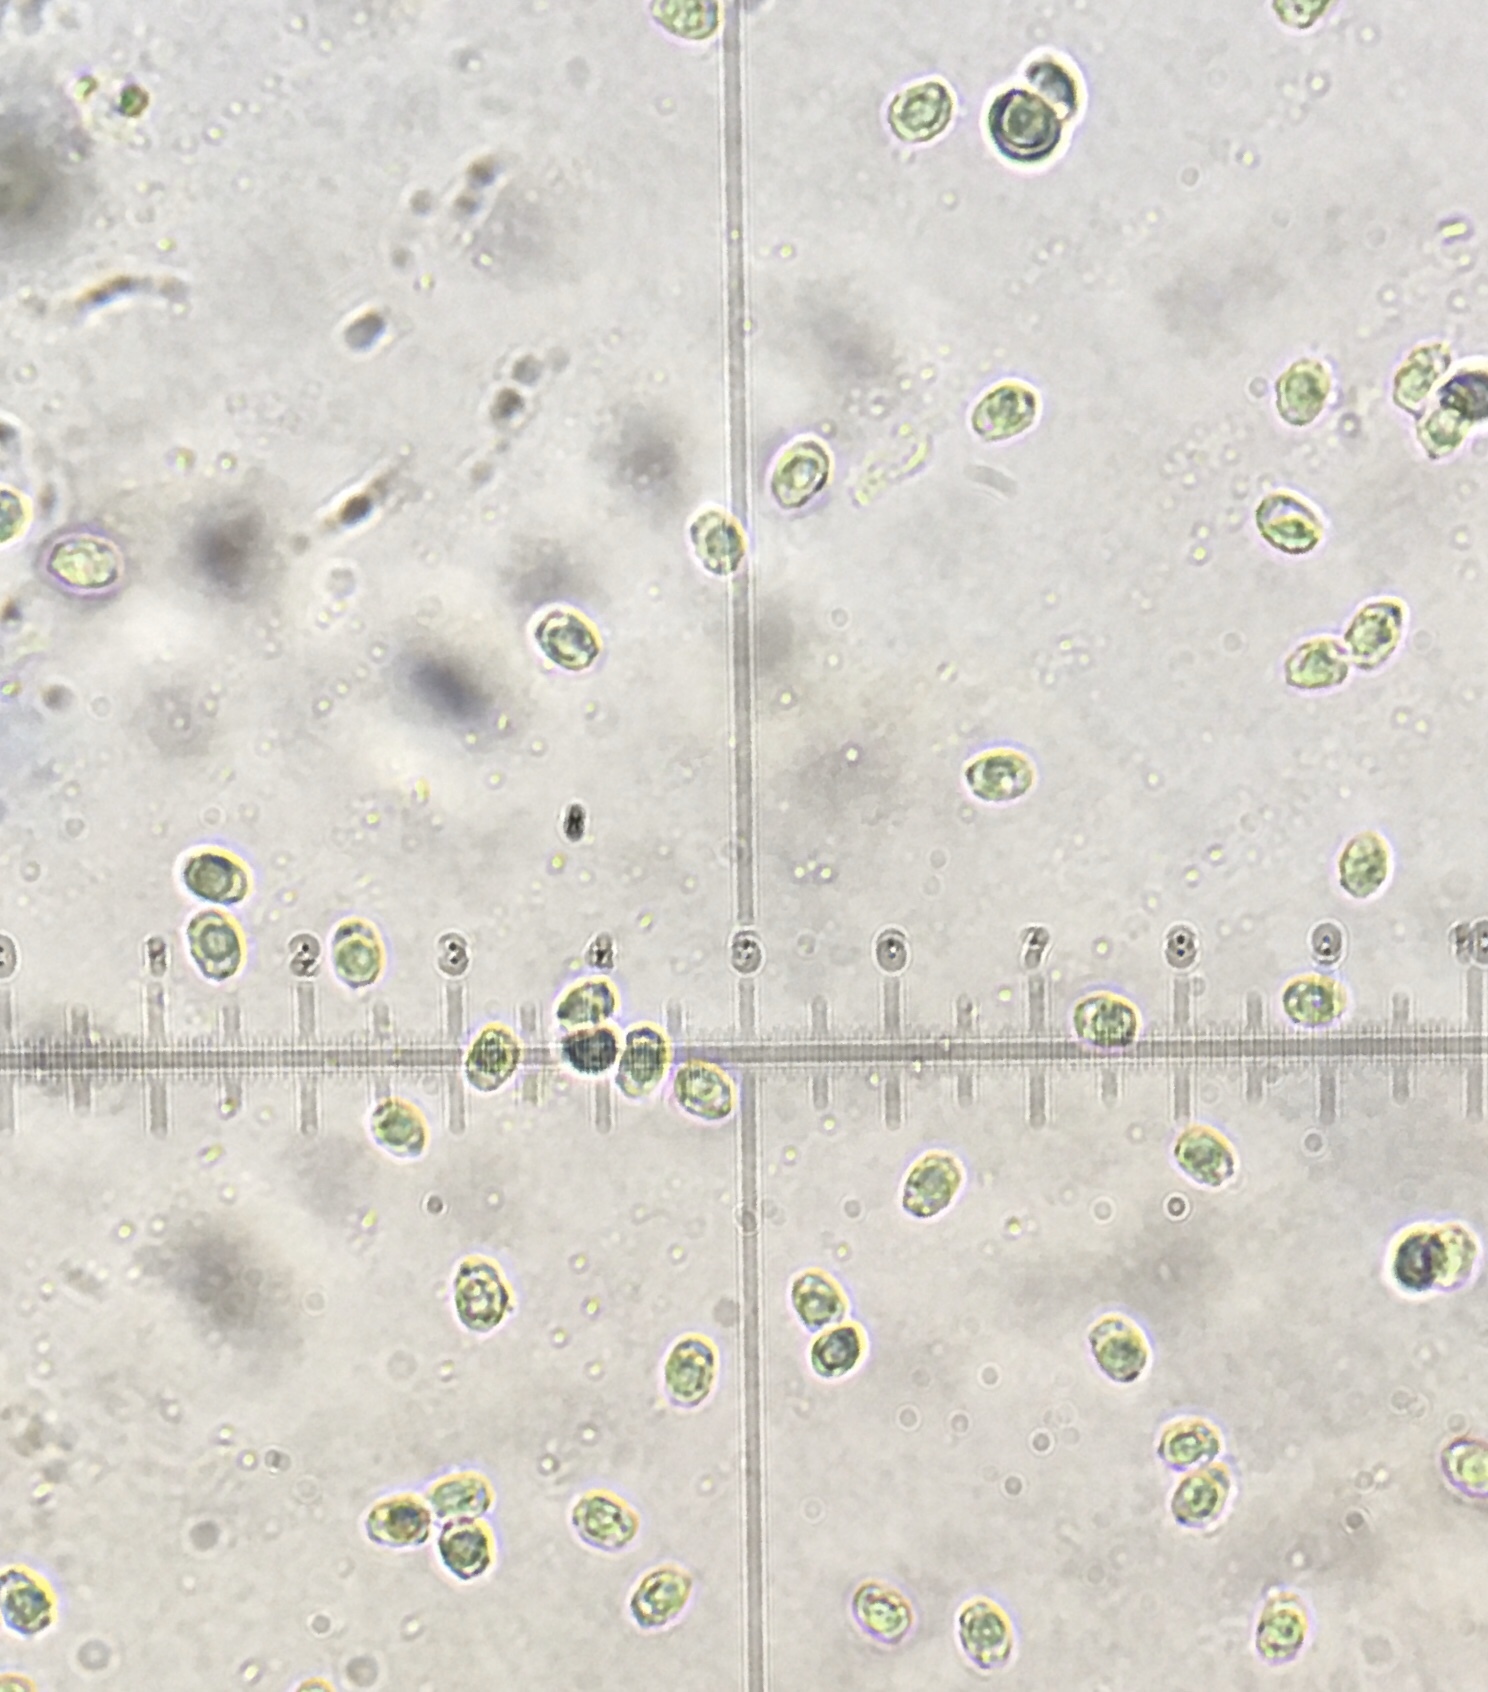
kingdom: Fungi
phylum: Basidiomycota
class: Agaricomycetes
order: Agaricales
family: Tricholomataceae
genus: Lepista
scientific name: Lepista subconnexa
